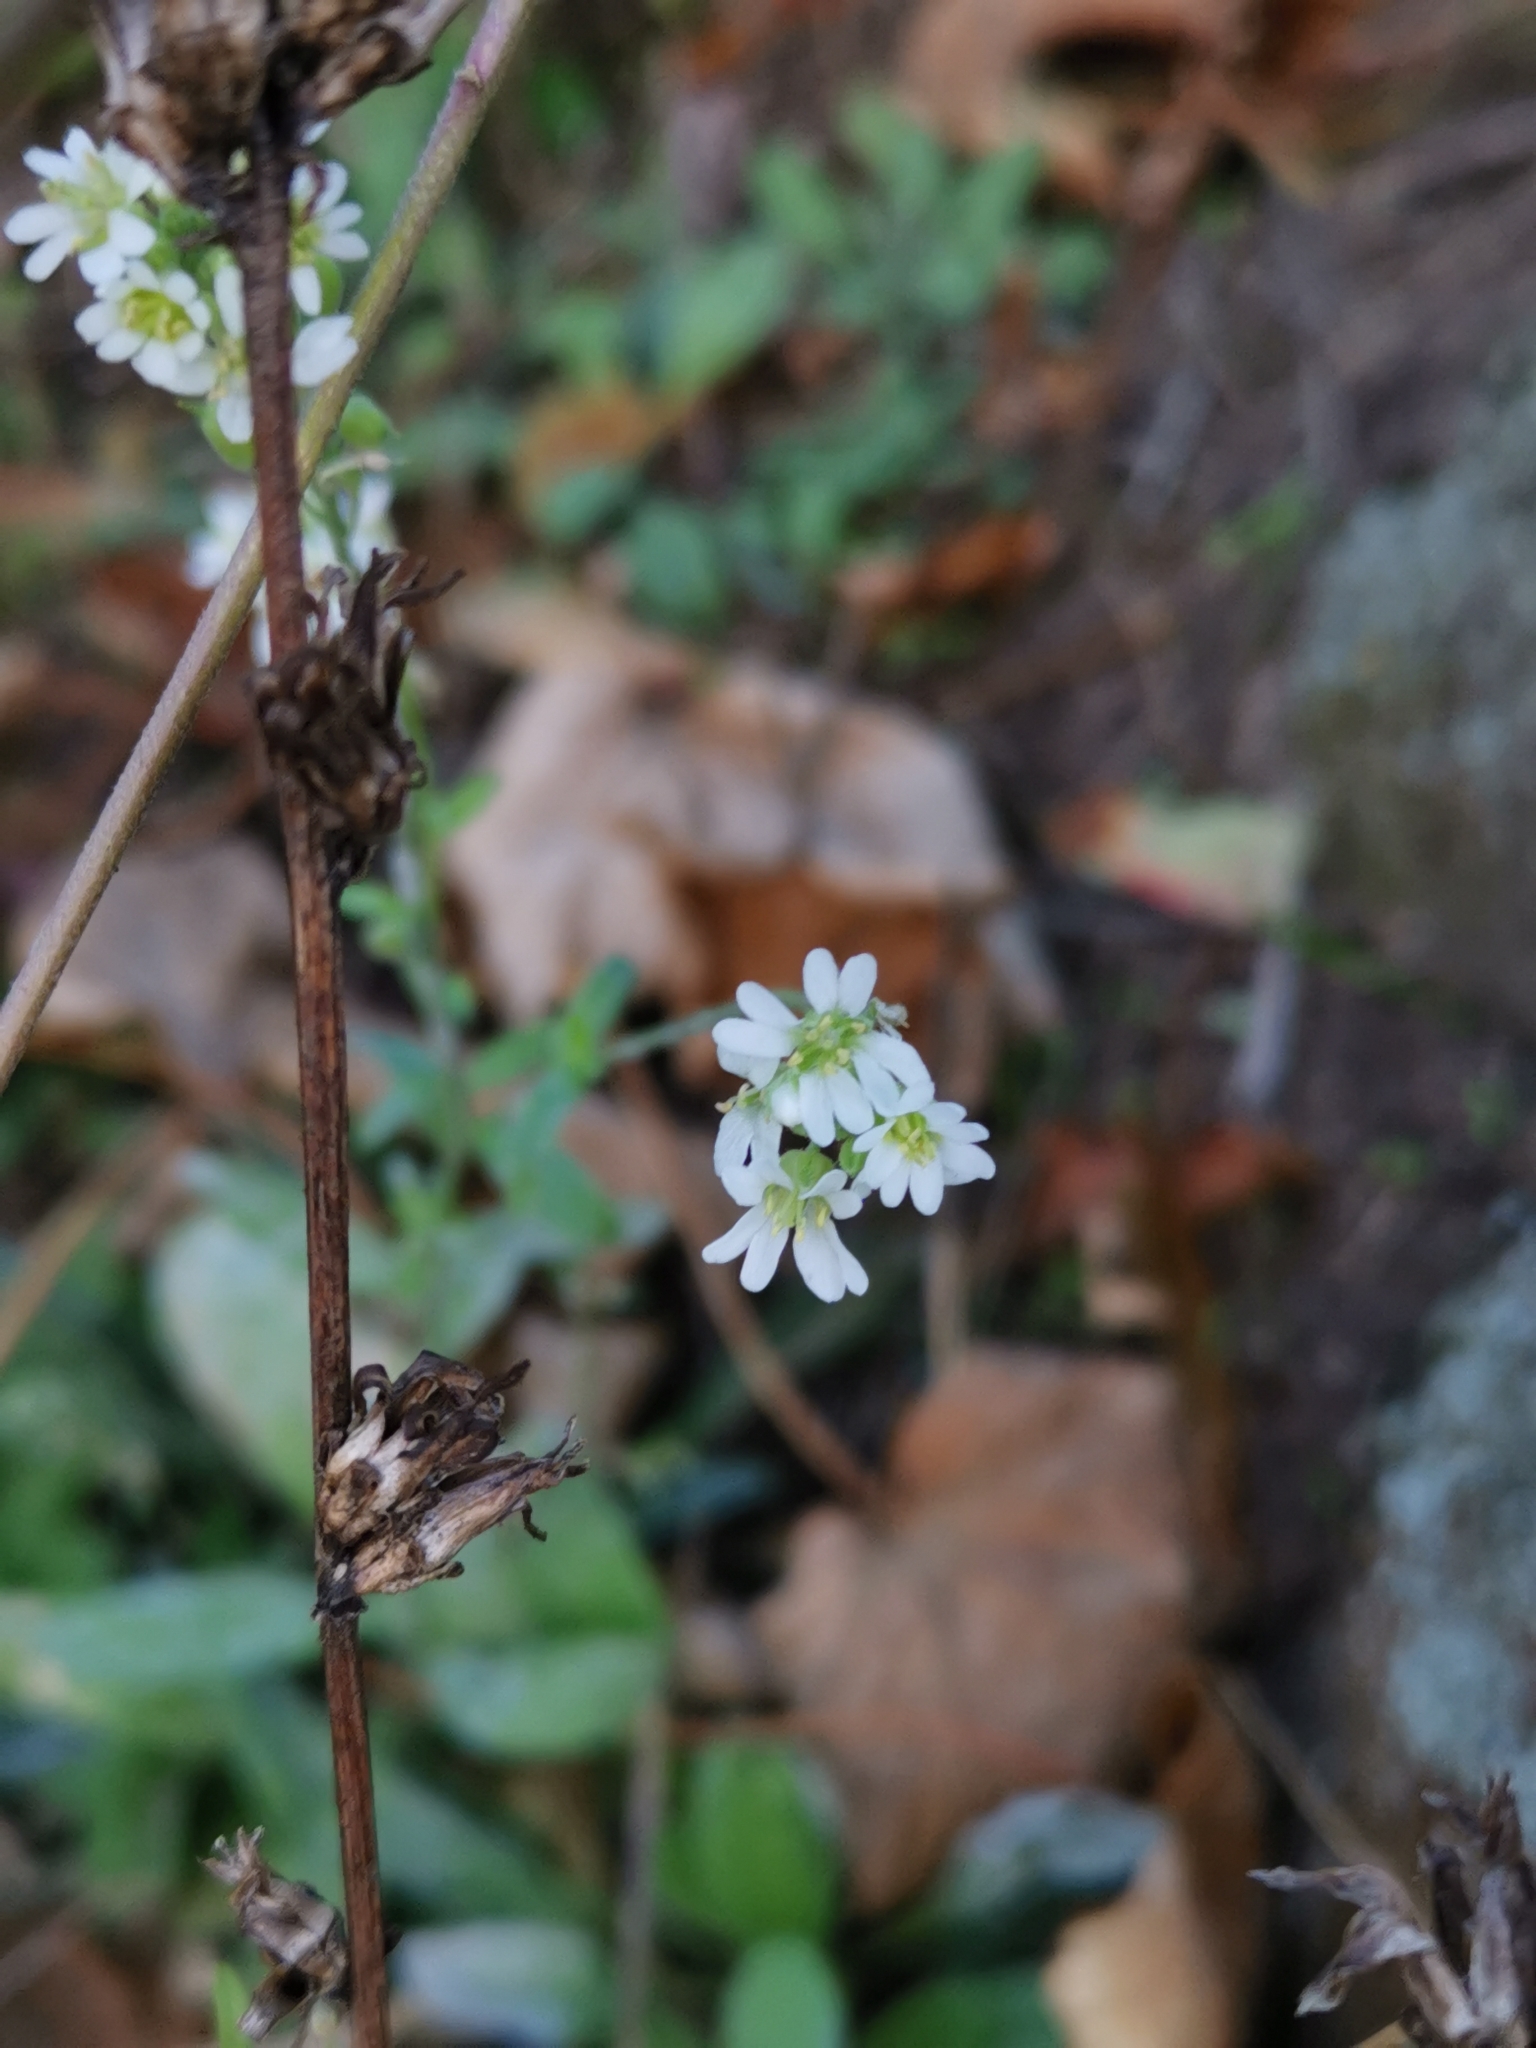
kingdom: Plantae
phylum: Tracheophyta
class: Magnoliopsida
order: Brassicales
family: Brassicaceae
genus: Berteroa
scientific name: Berteroa incana
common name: Hoary alison
